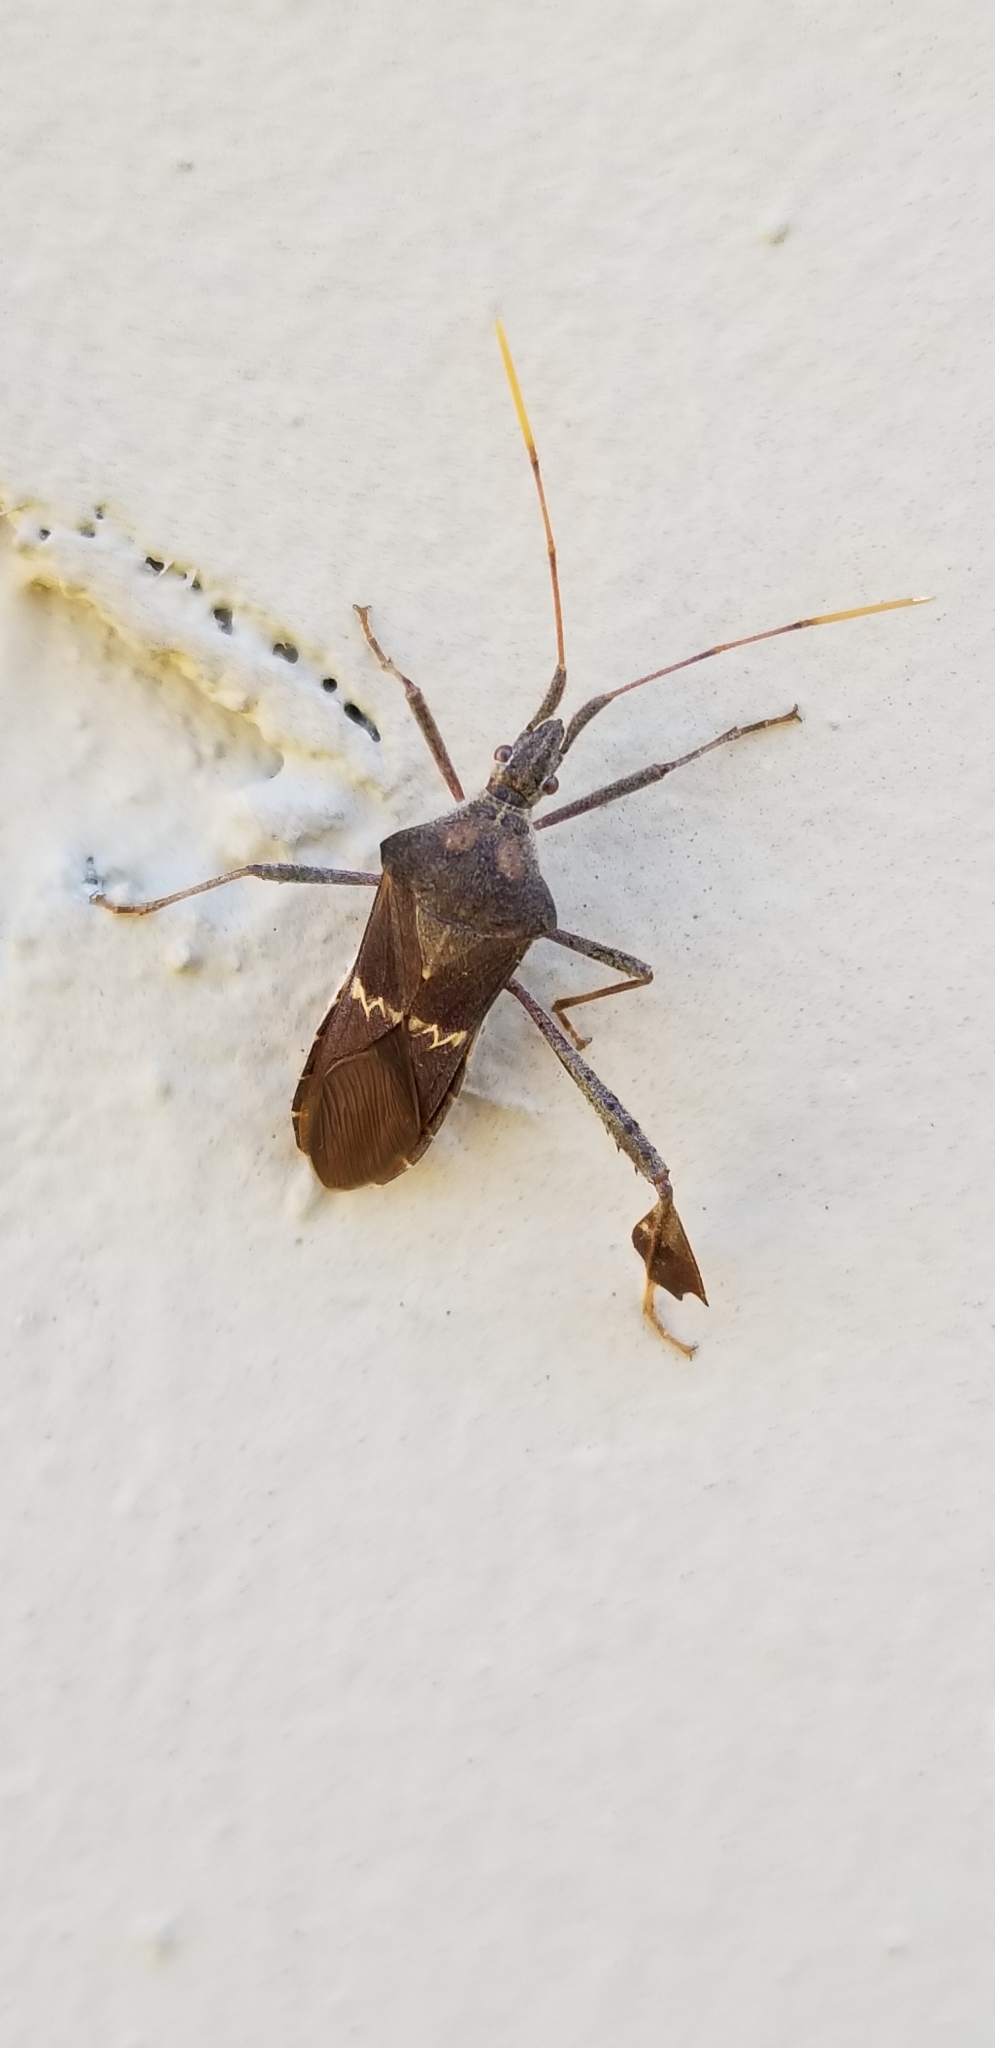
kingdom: Animalia
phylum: Arthropoda
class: Insecta
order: Hemiptera
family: Coreidae
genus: Leptoglossus
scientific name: Leptoglossus zonatus
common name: Large-legged bug
